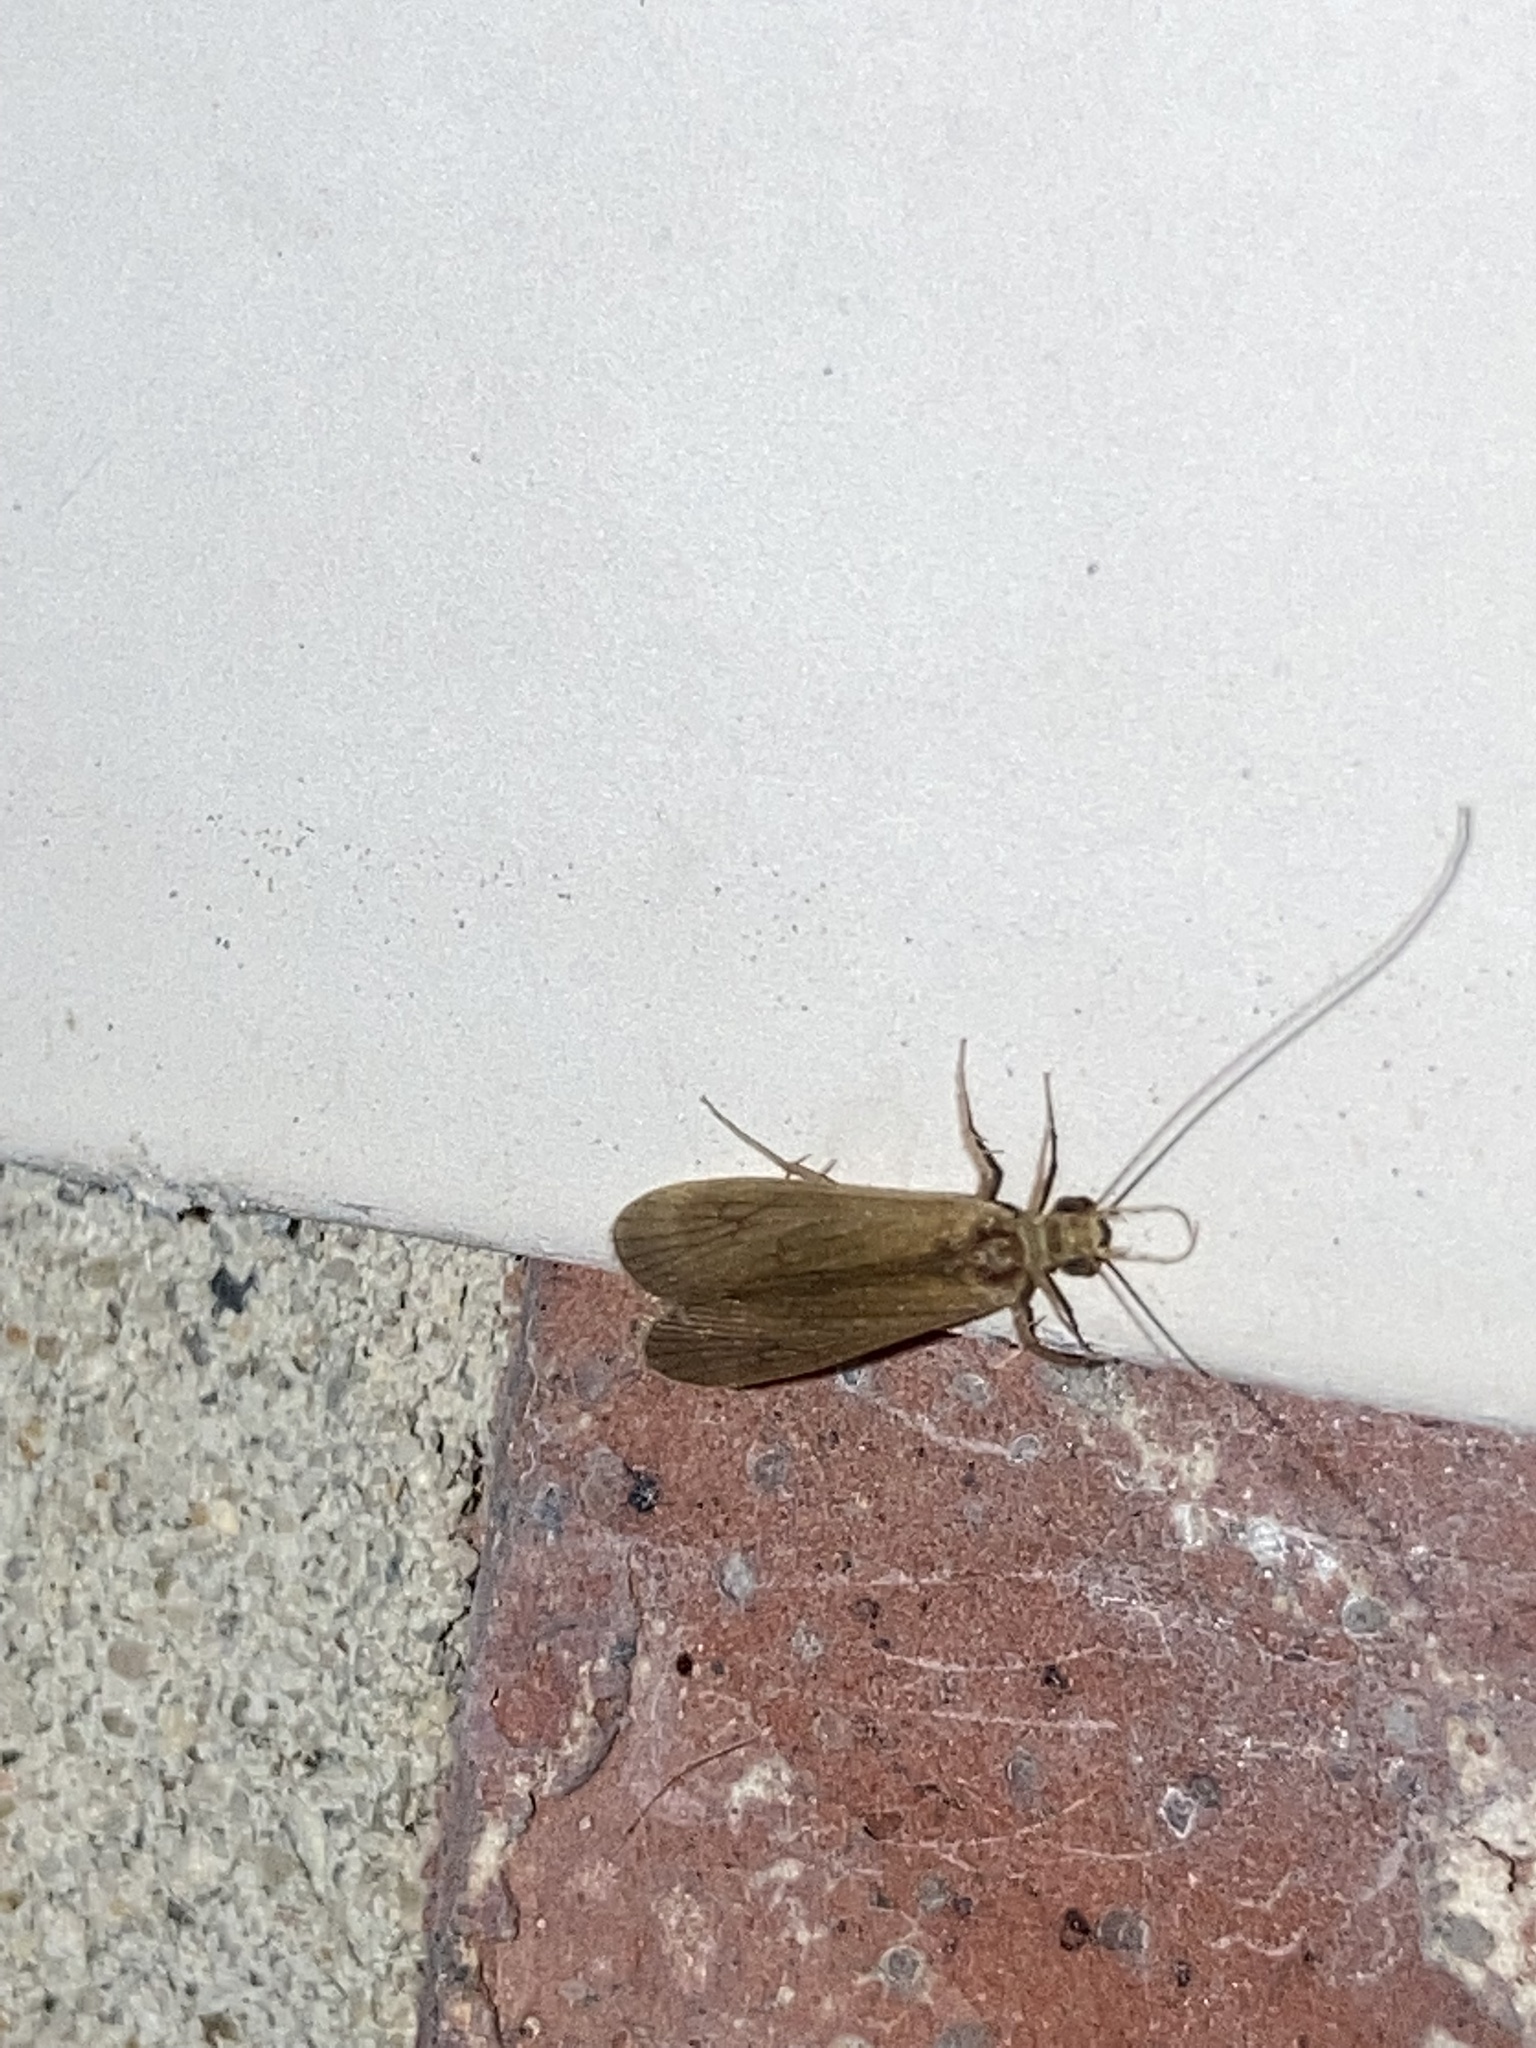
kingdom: Animalia
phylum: Arthropoda
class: Insecta
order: Trichoptera
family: Hydropsychidae
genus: Potamyia
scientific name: Potamyia flava
